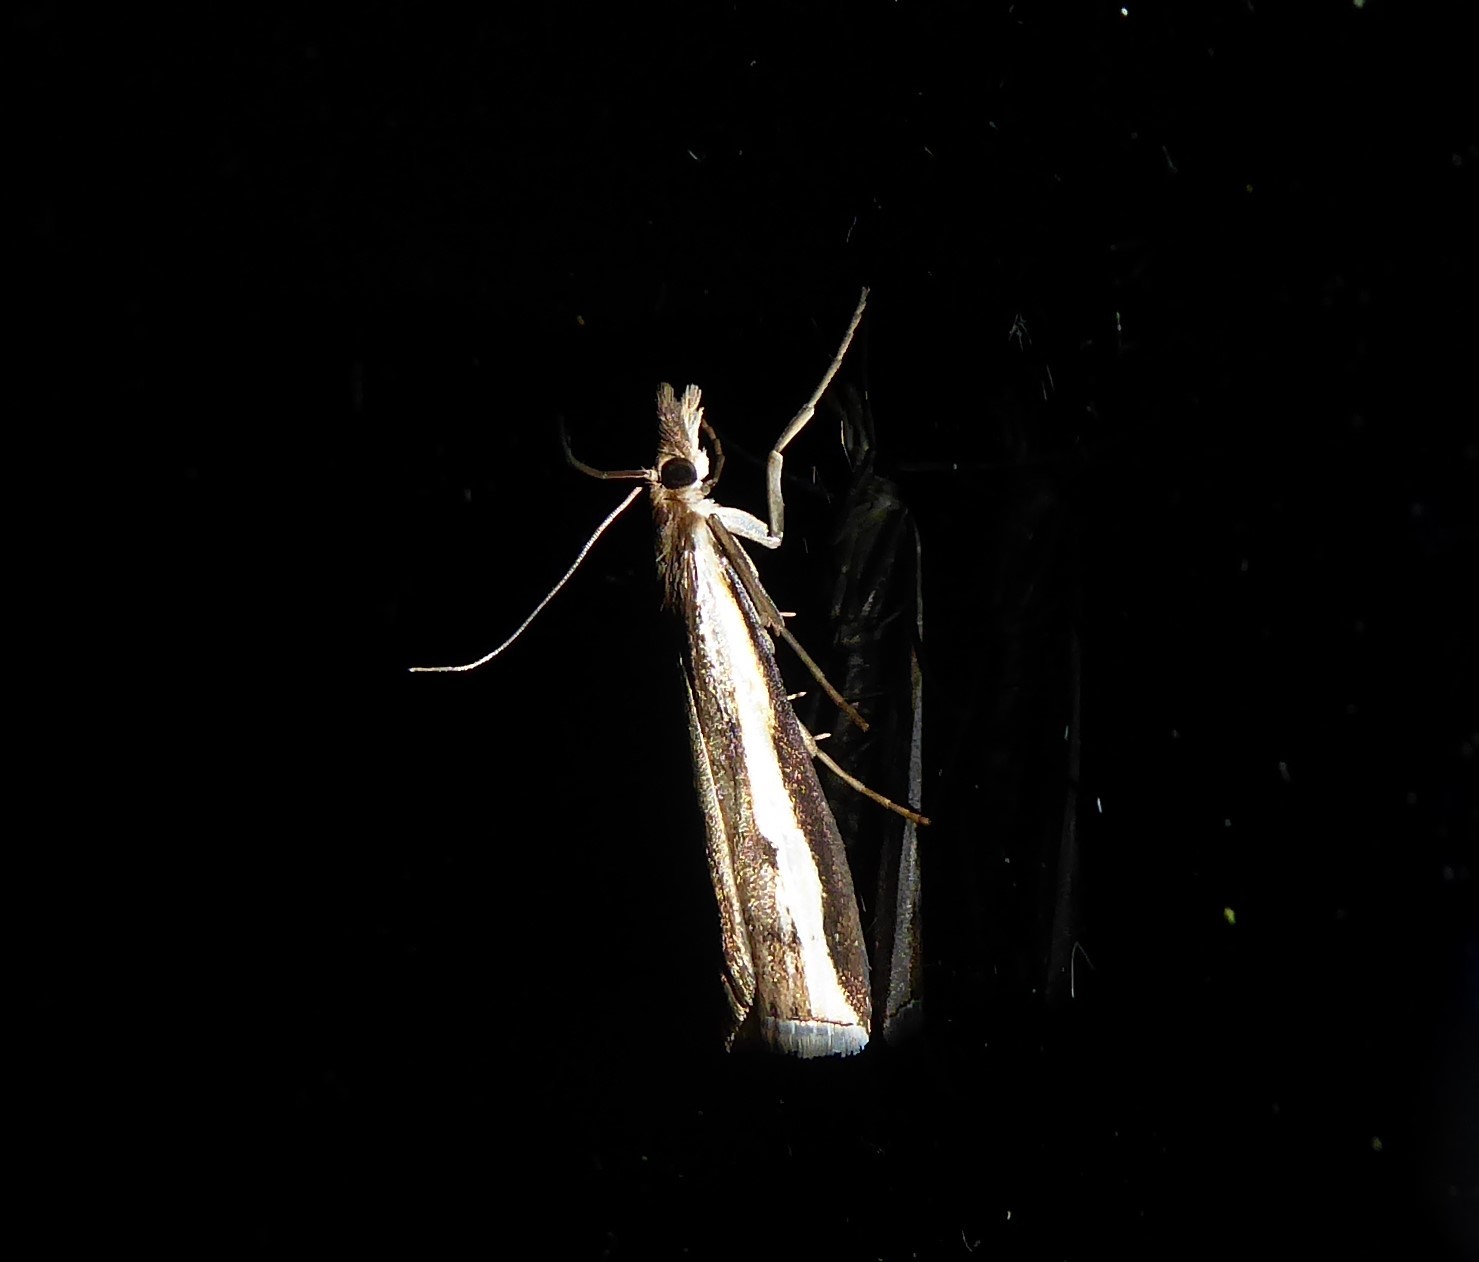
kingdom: Animalia
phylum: Arthropoda
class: Insecta
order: Lepidoptera
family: Crambidae
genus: Orocrambus
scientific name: Orocrambus flexuosellus
